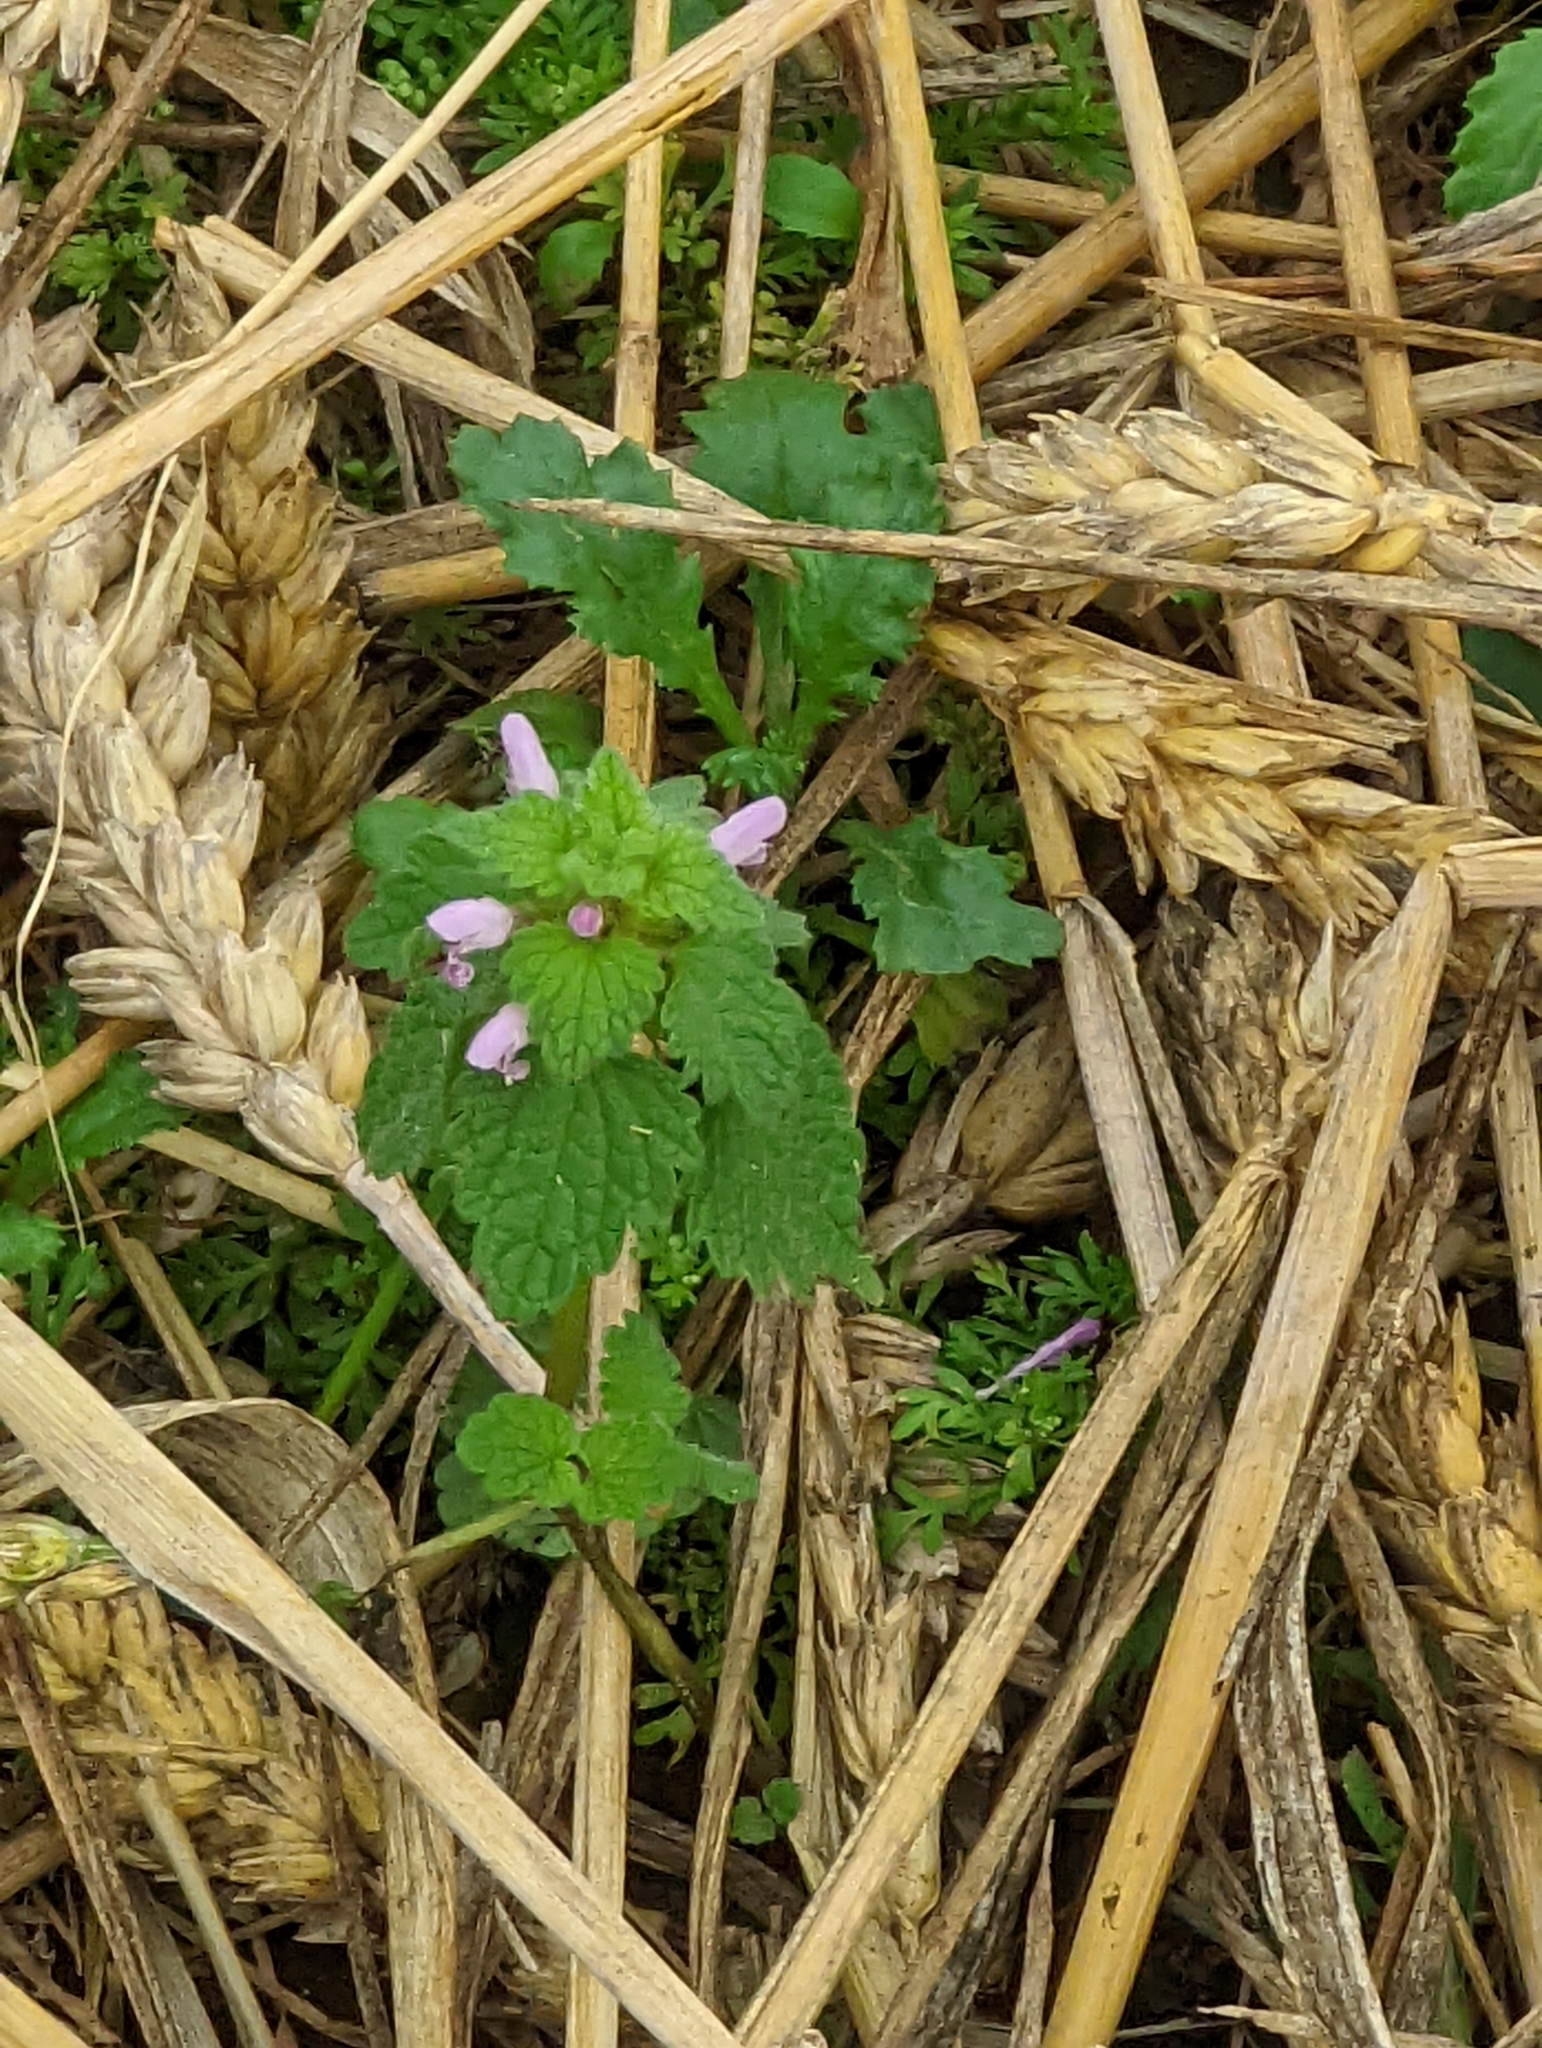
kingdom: Plantae
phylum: Tracheophyta
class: Magnoliopsida
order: Lamiales
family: Lamiaceae
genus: Lamium
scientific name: Lamium purpureum
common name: Red dead-nettle
